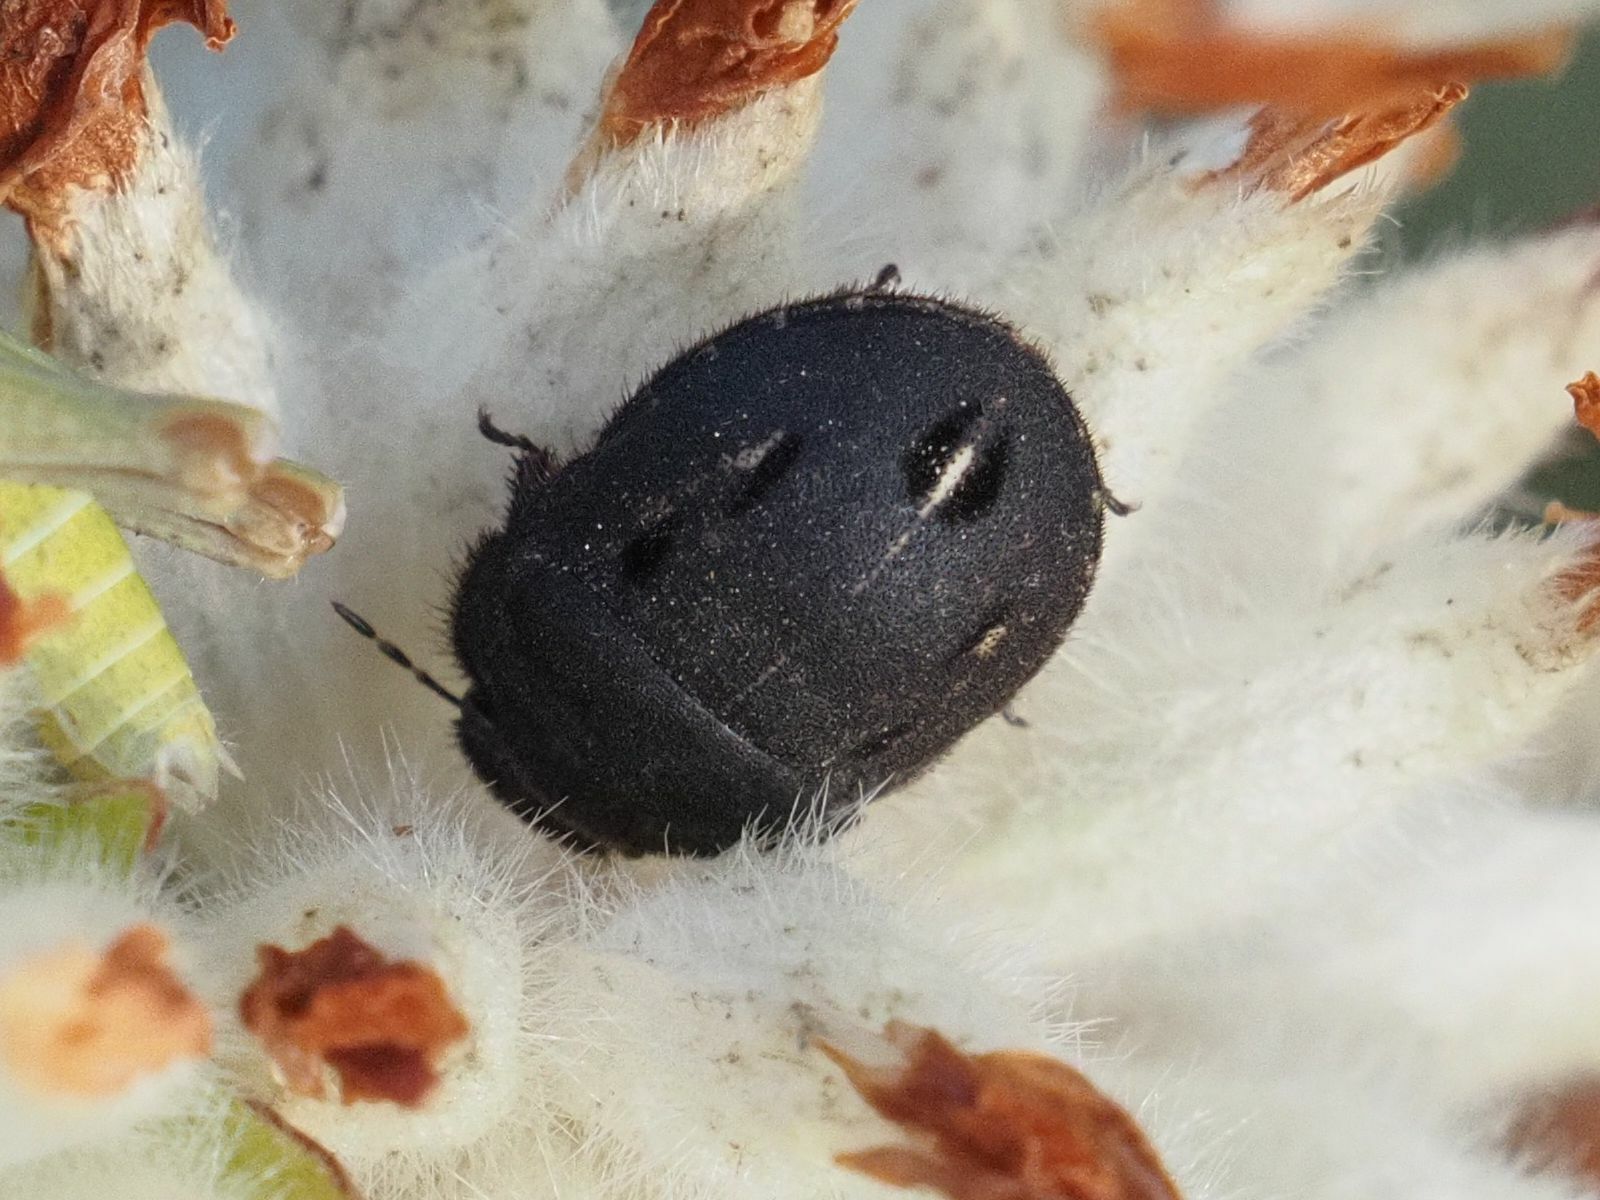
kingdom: Animalia
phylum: Arthropoda
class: Insecta
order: Hemiptera
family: Scutelleridae
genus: Odontoscelis
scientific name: Odontoscelis fuliginosa
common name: Greater streaked shieldbug
